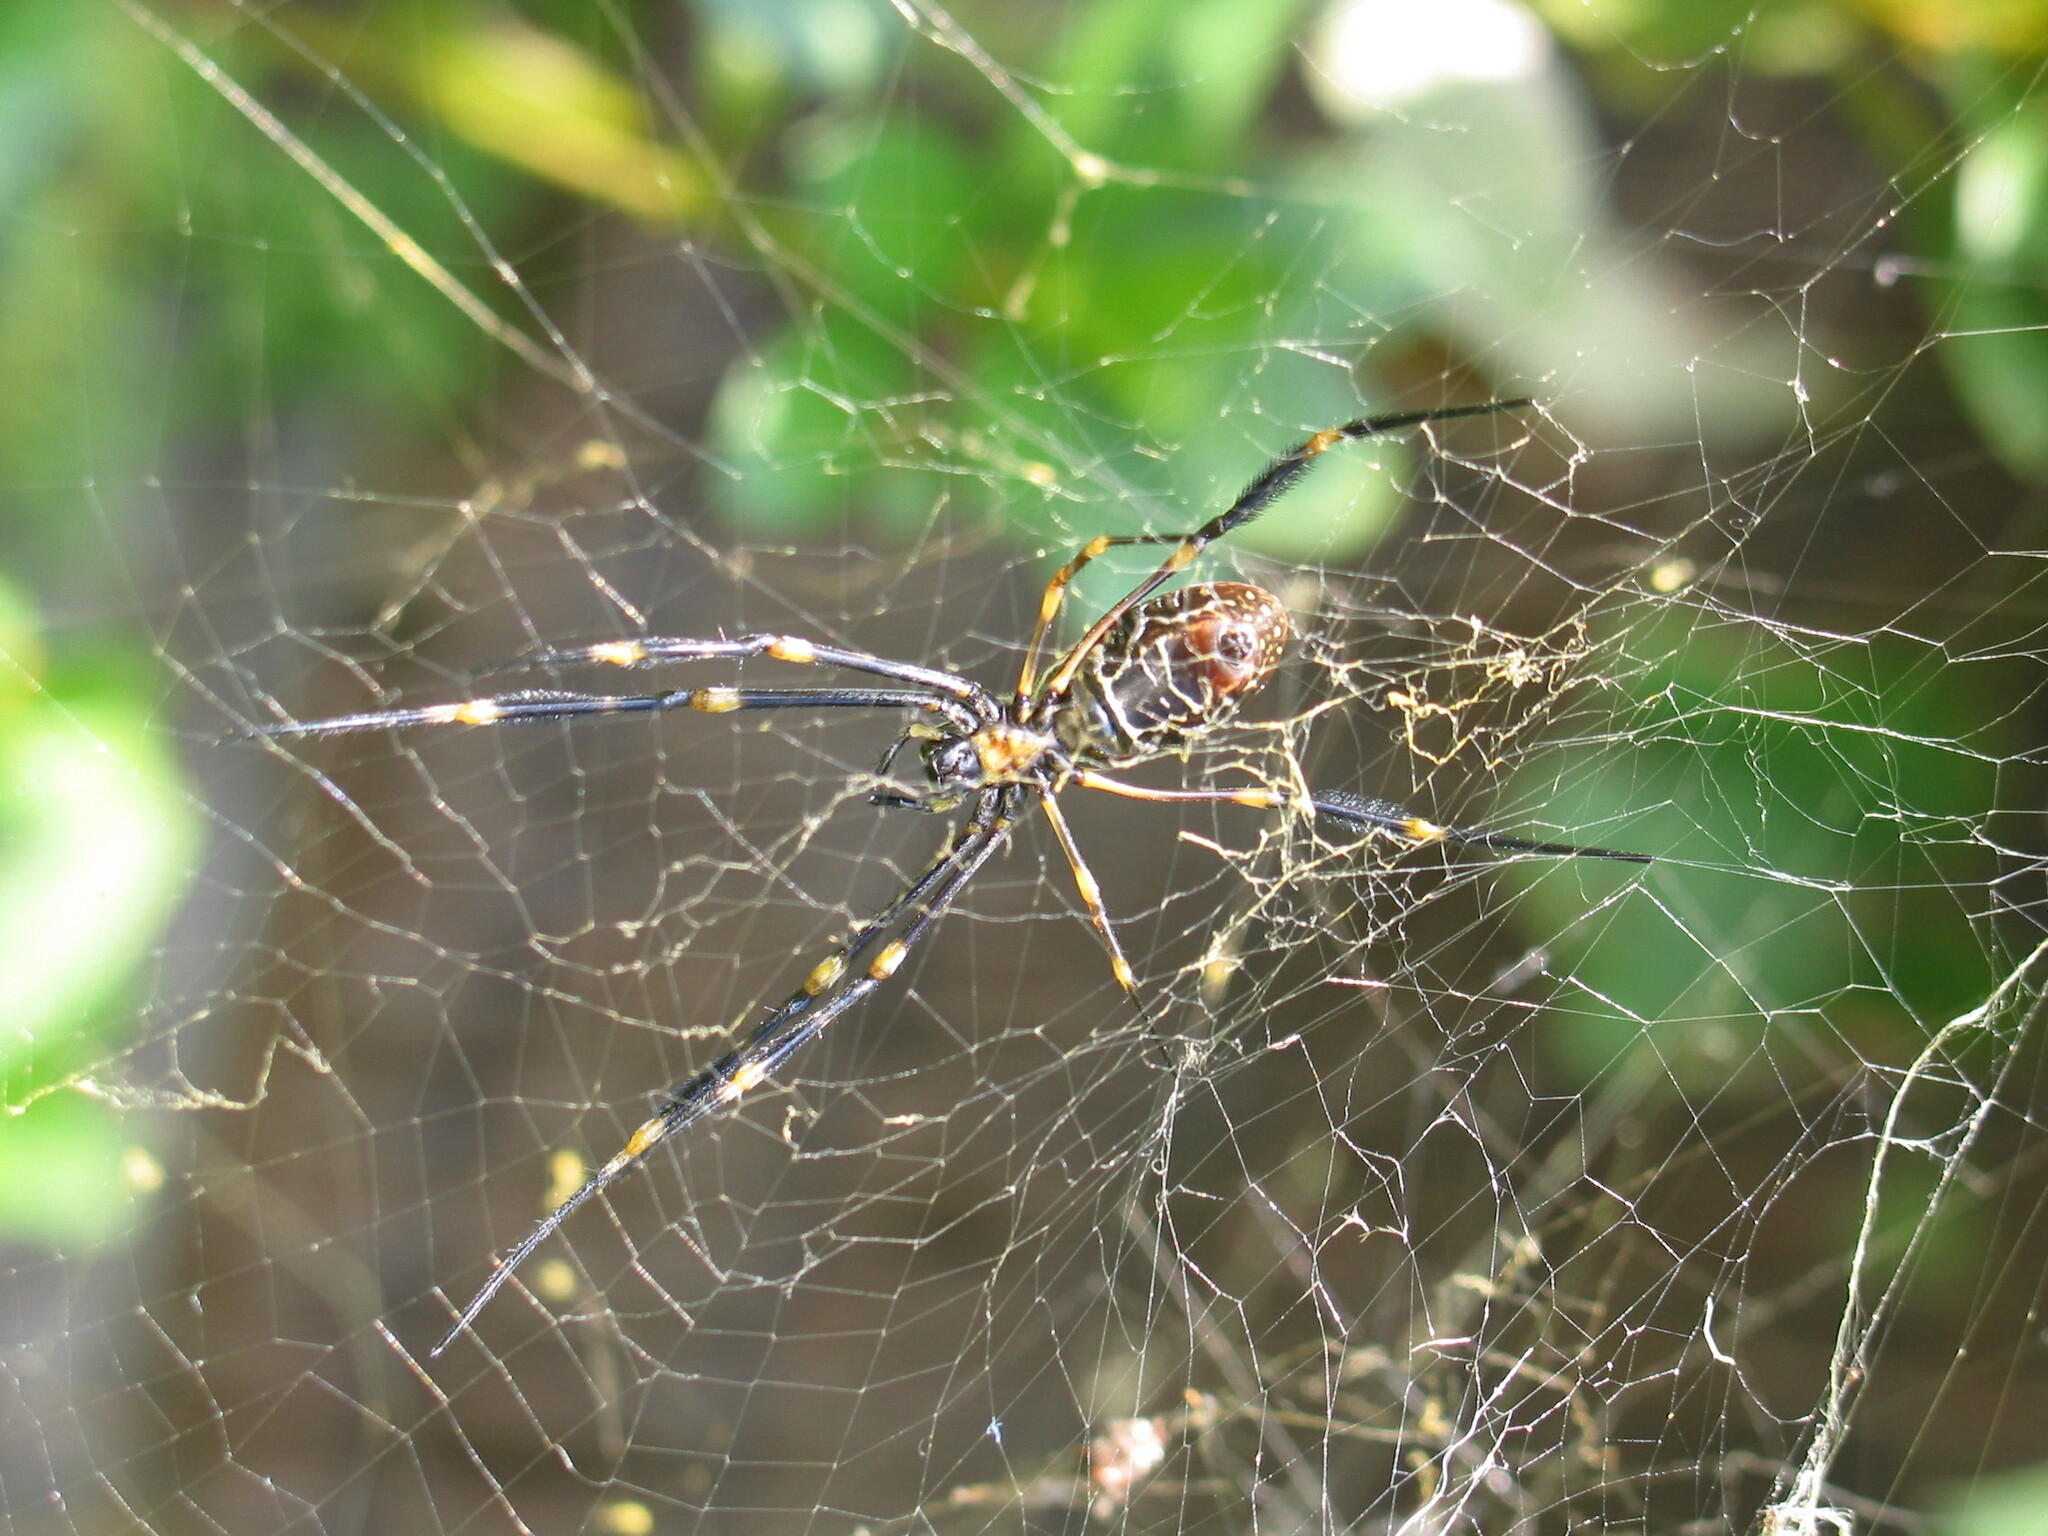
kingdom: Animalia
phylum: Arthropoda
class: Arachnida
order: Araneae
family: Araneidae
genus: Trichonephila
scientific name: Trichonephila plumipes
